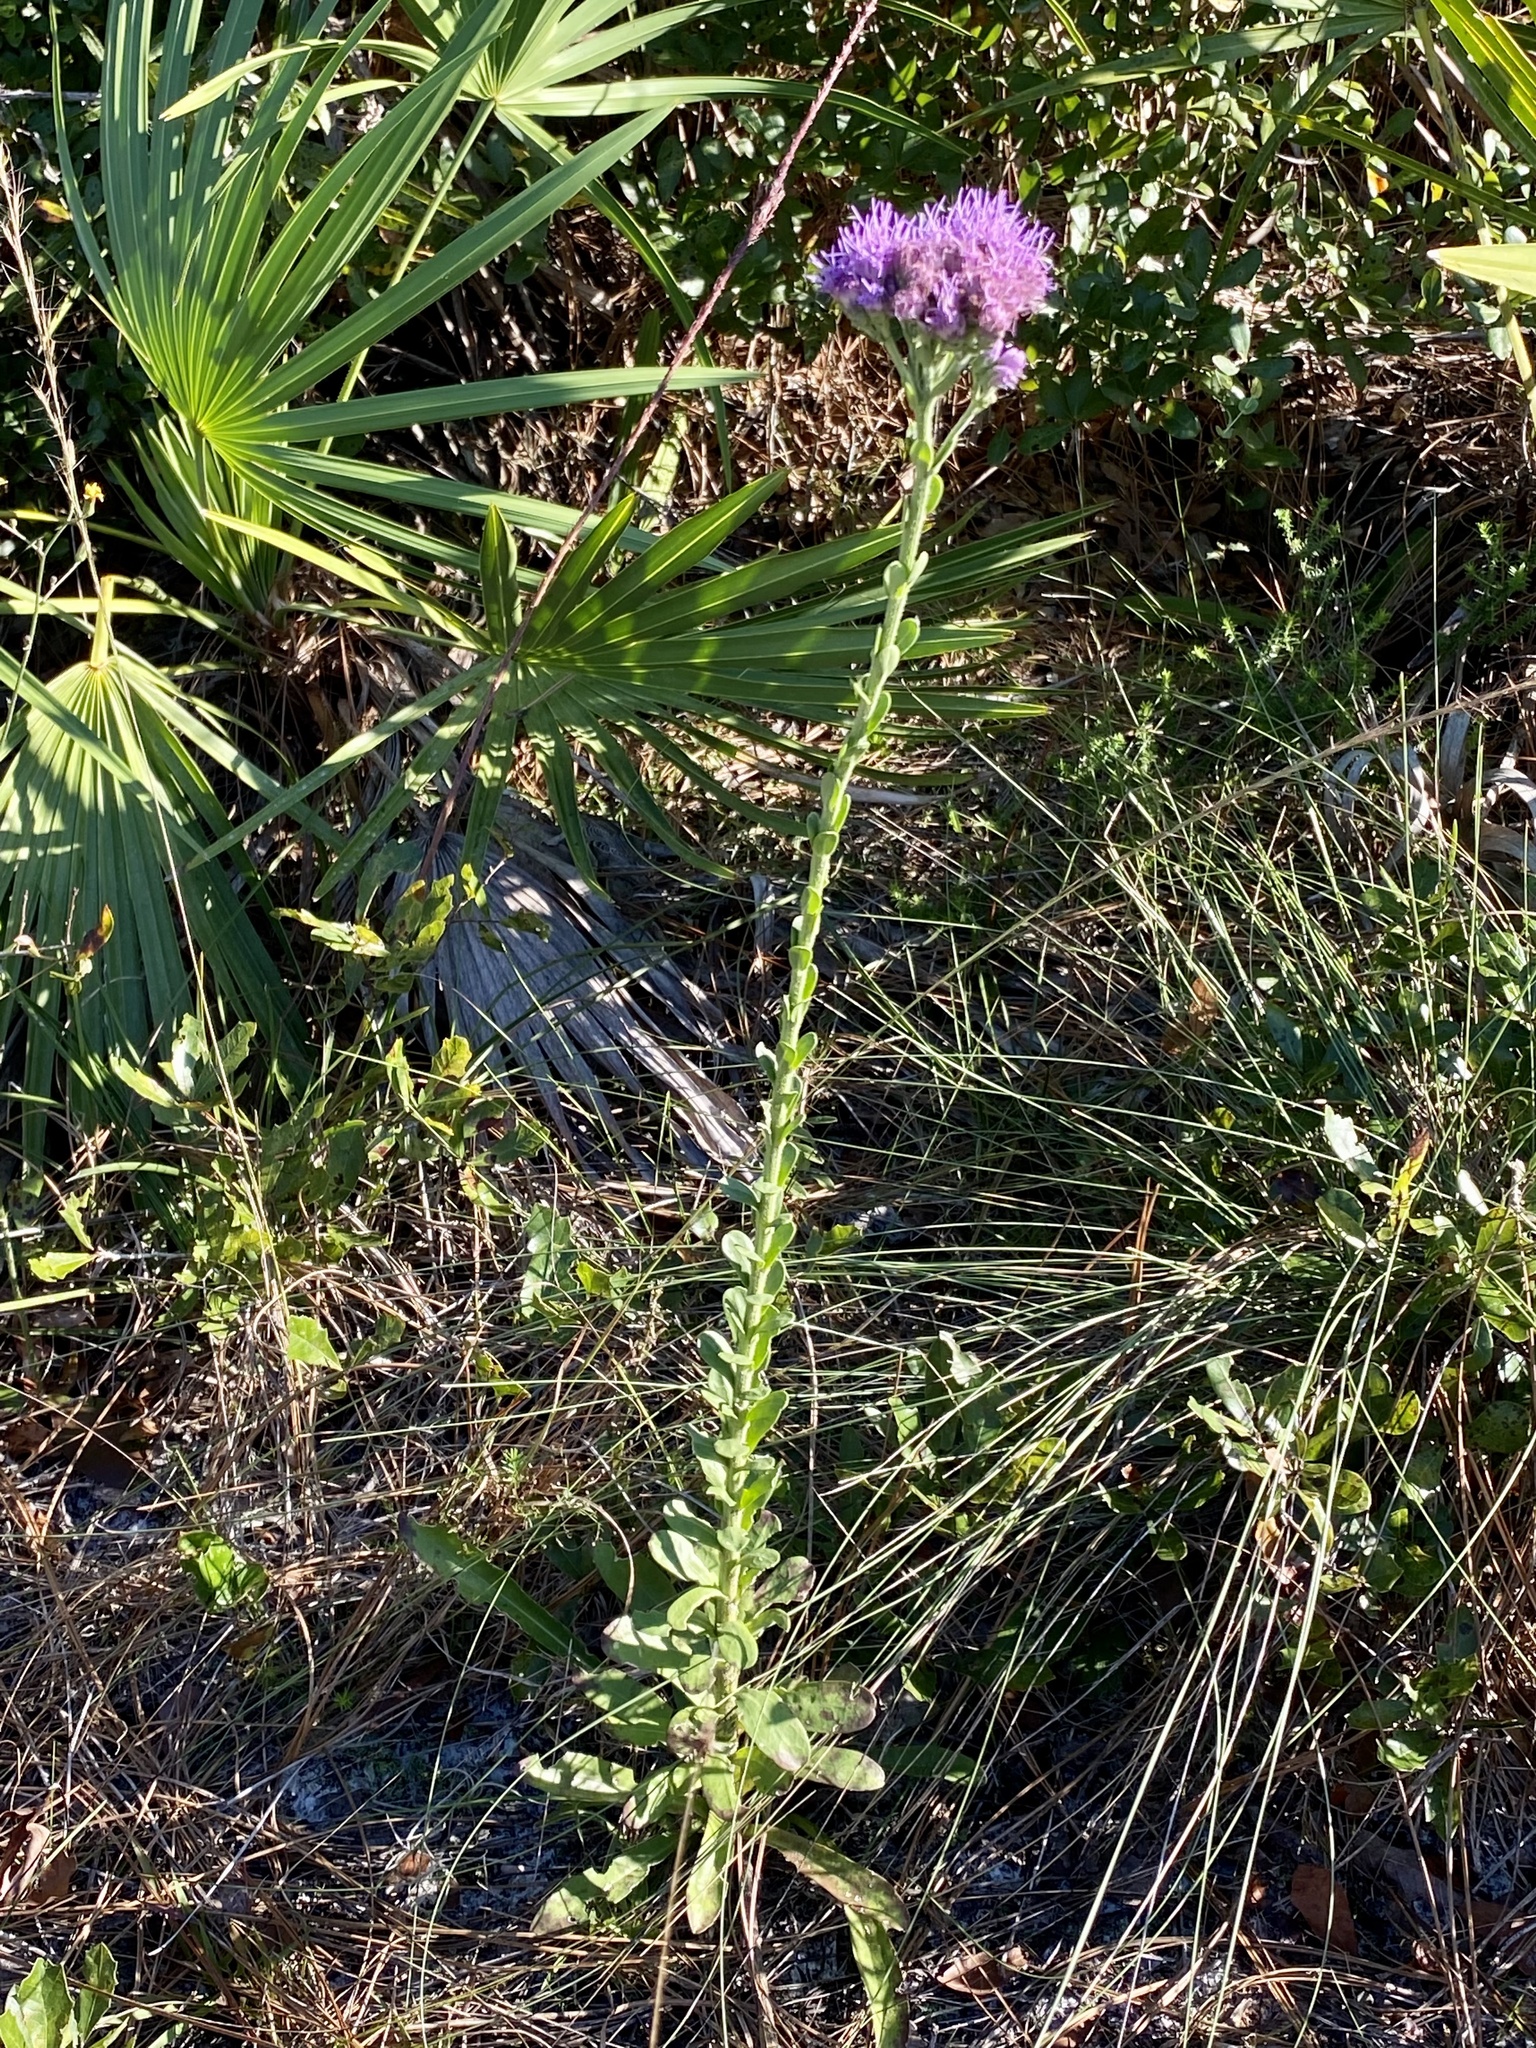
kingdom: Plantae
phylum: Tracheophyta
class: Magnoliopsida
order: Asterales
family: Asteraceae
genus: Carphephorus
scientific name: Carphephorus corymbosus
